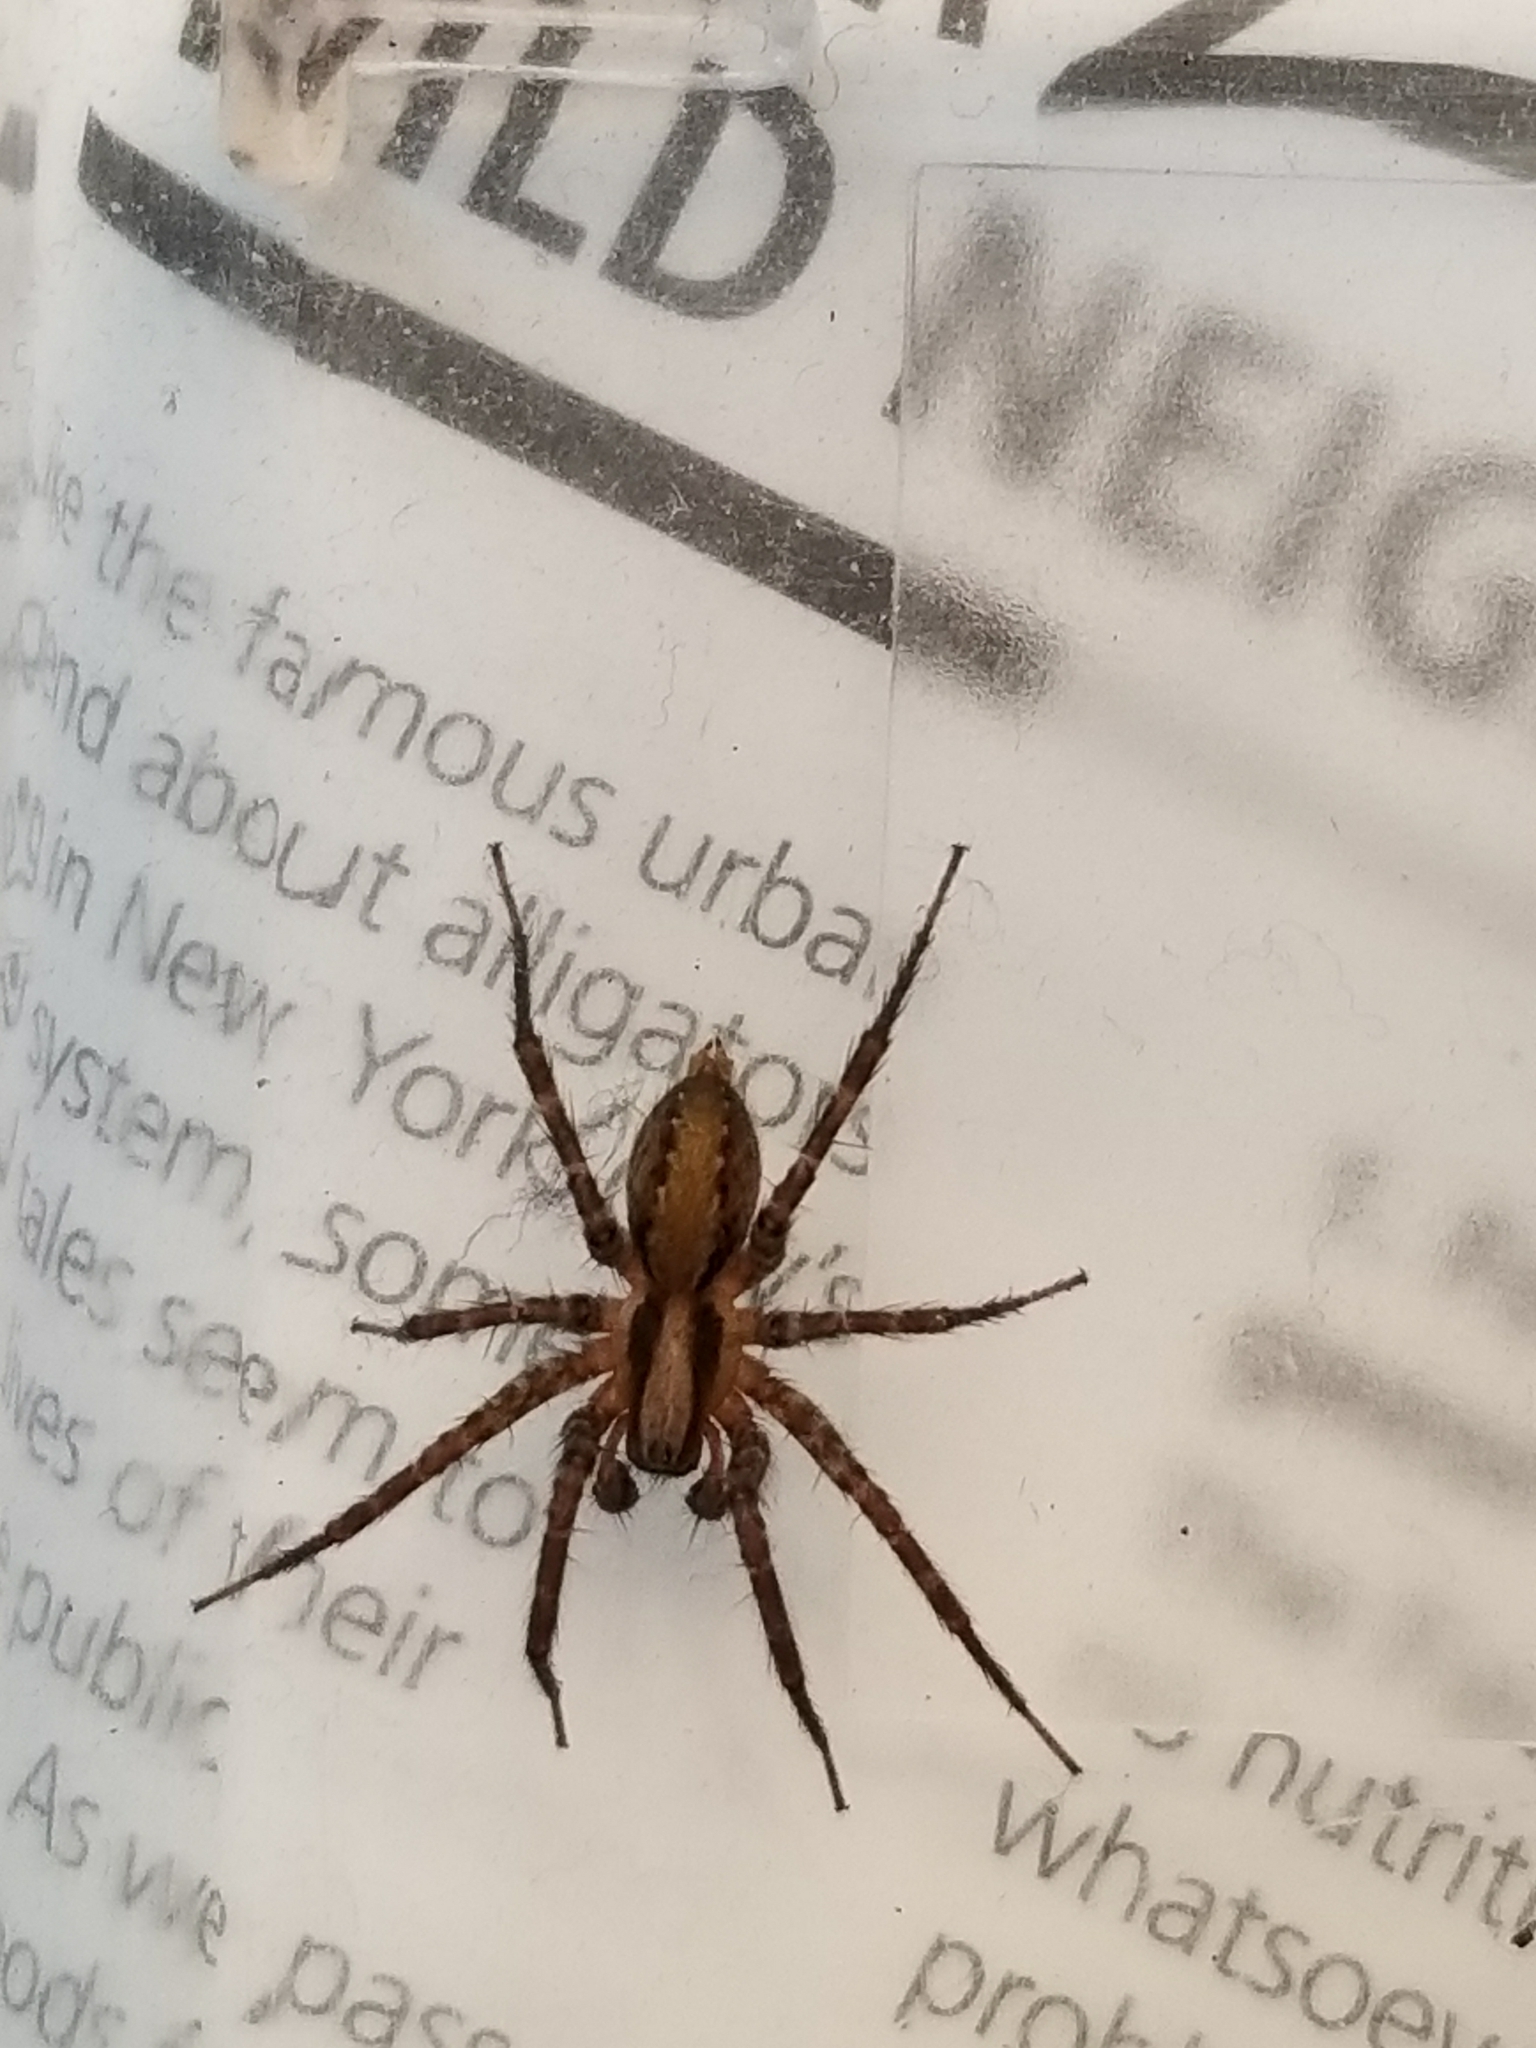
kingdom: Animalia
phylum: Arthropoda
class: Arachnida
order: Araneae
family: Agelenidae
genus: Agelenopsis
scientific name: Agelenopsis
